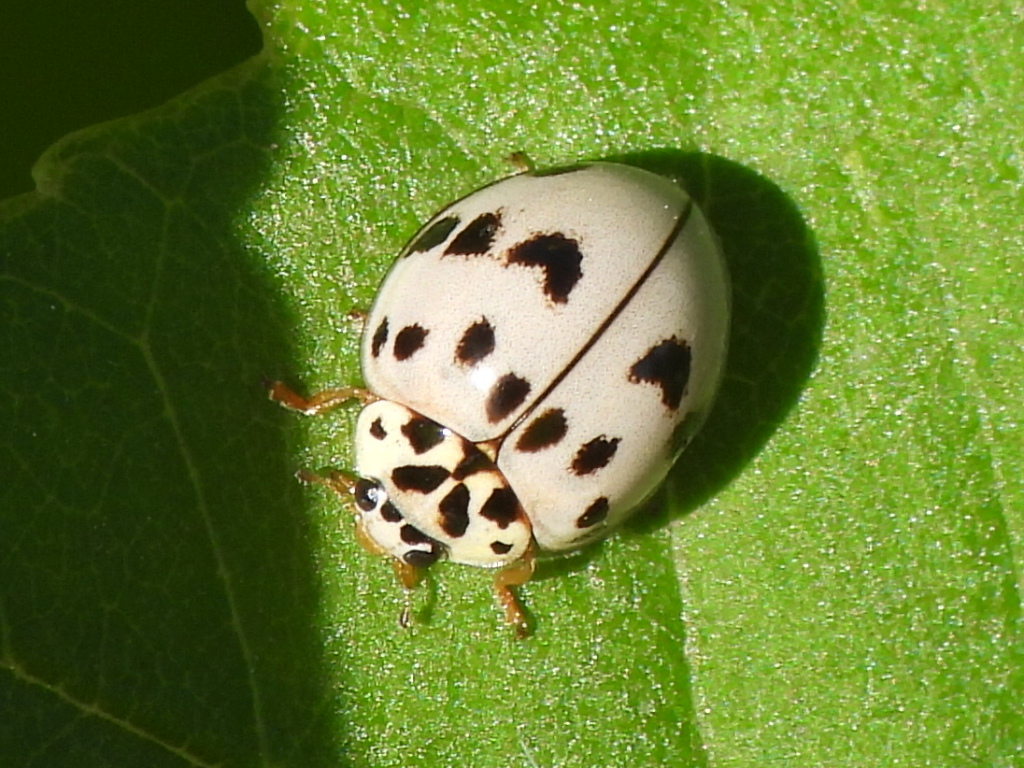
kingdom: Animalia
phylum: Arthropoda
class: Insecta
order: Coleoptera
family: Coccinellidae
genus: Olla
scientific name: Olla v-nigrum
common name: Ashy gray lady beetle
